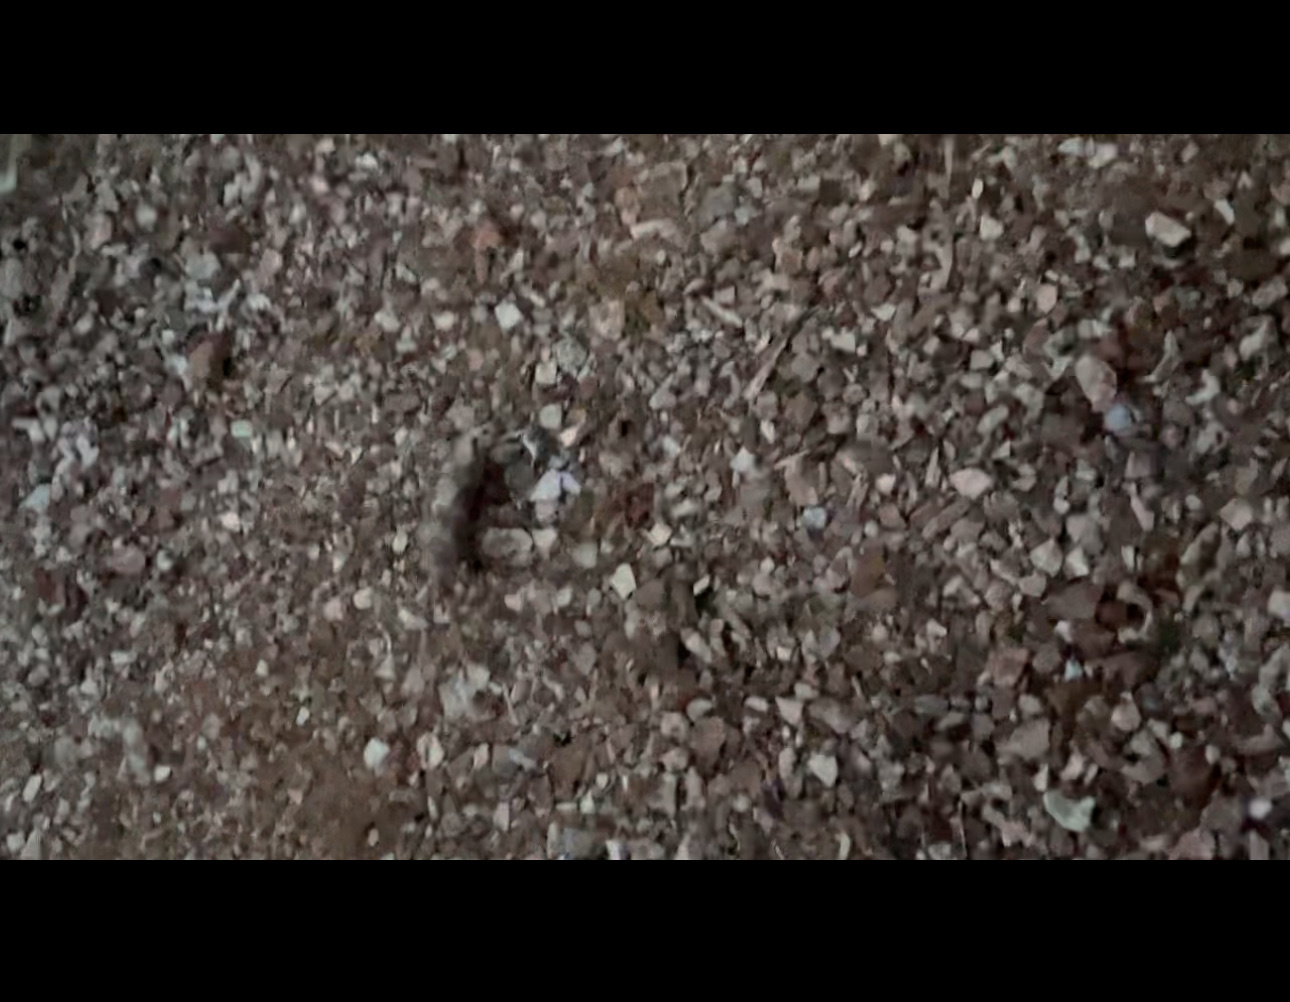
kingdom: Animalia
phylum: Chordata
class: Mammalia
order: Didelphimorphia
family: Didelphidae
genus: Didelphis
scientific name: Didelphis virginiana
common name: Virginia opossum
